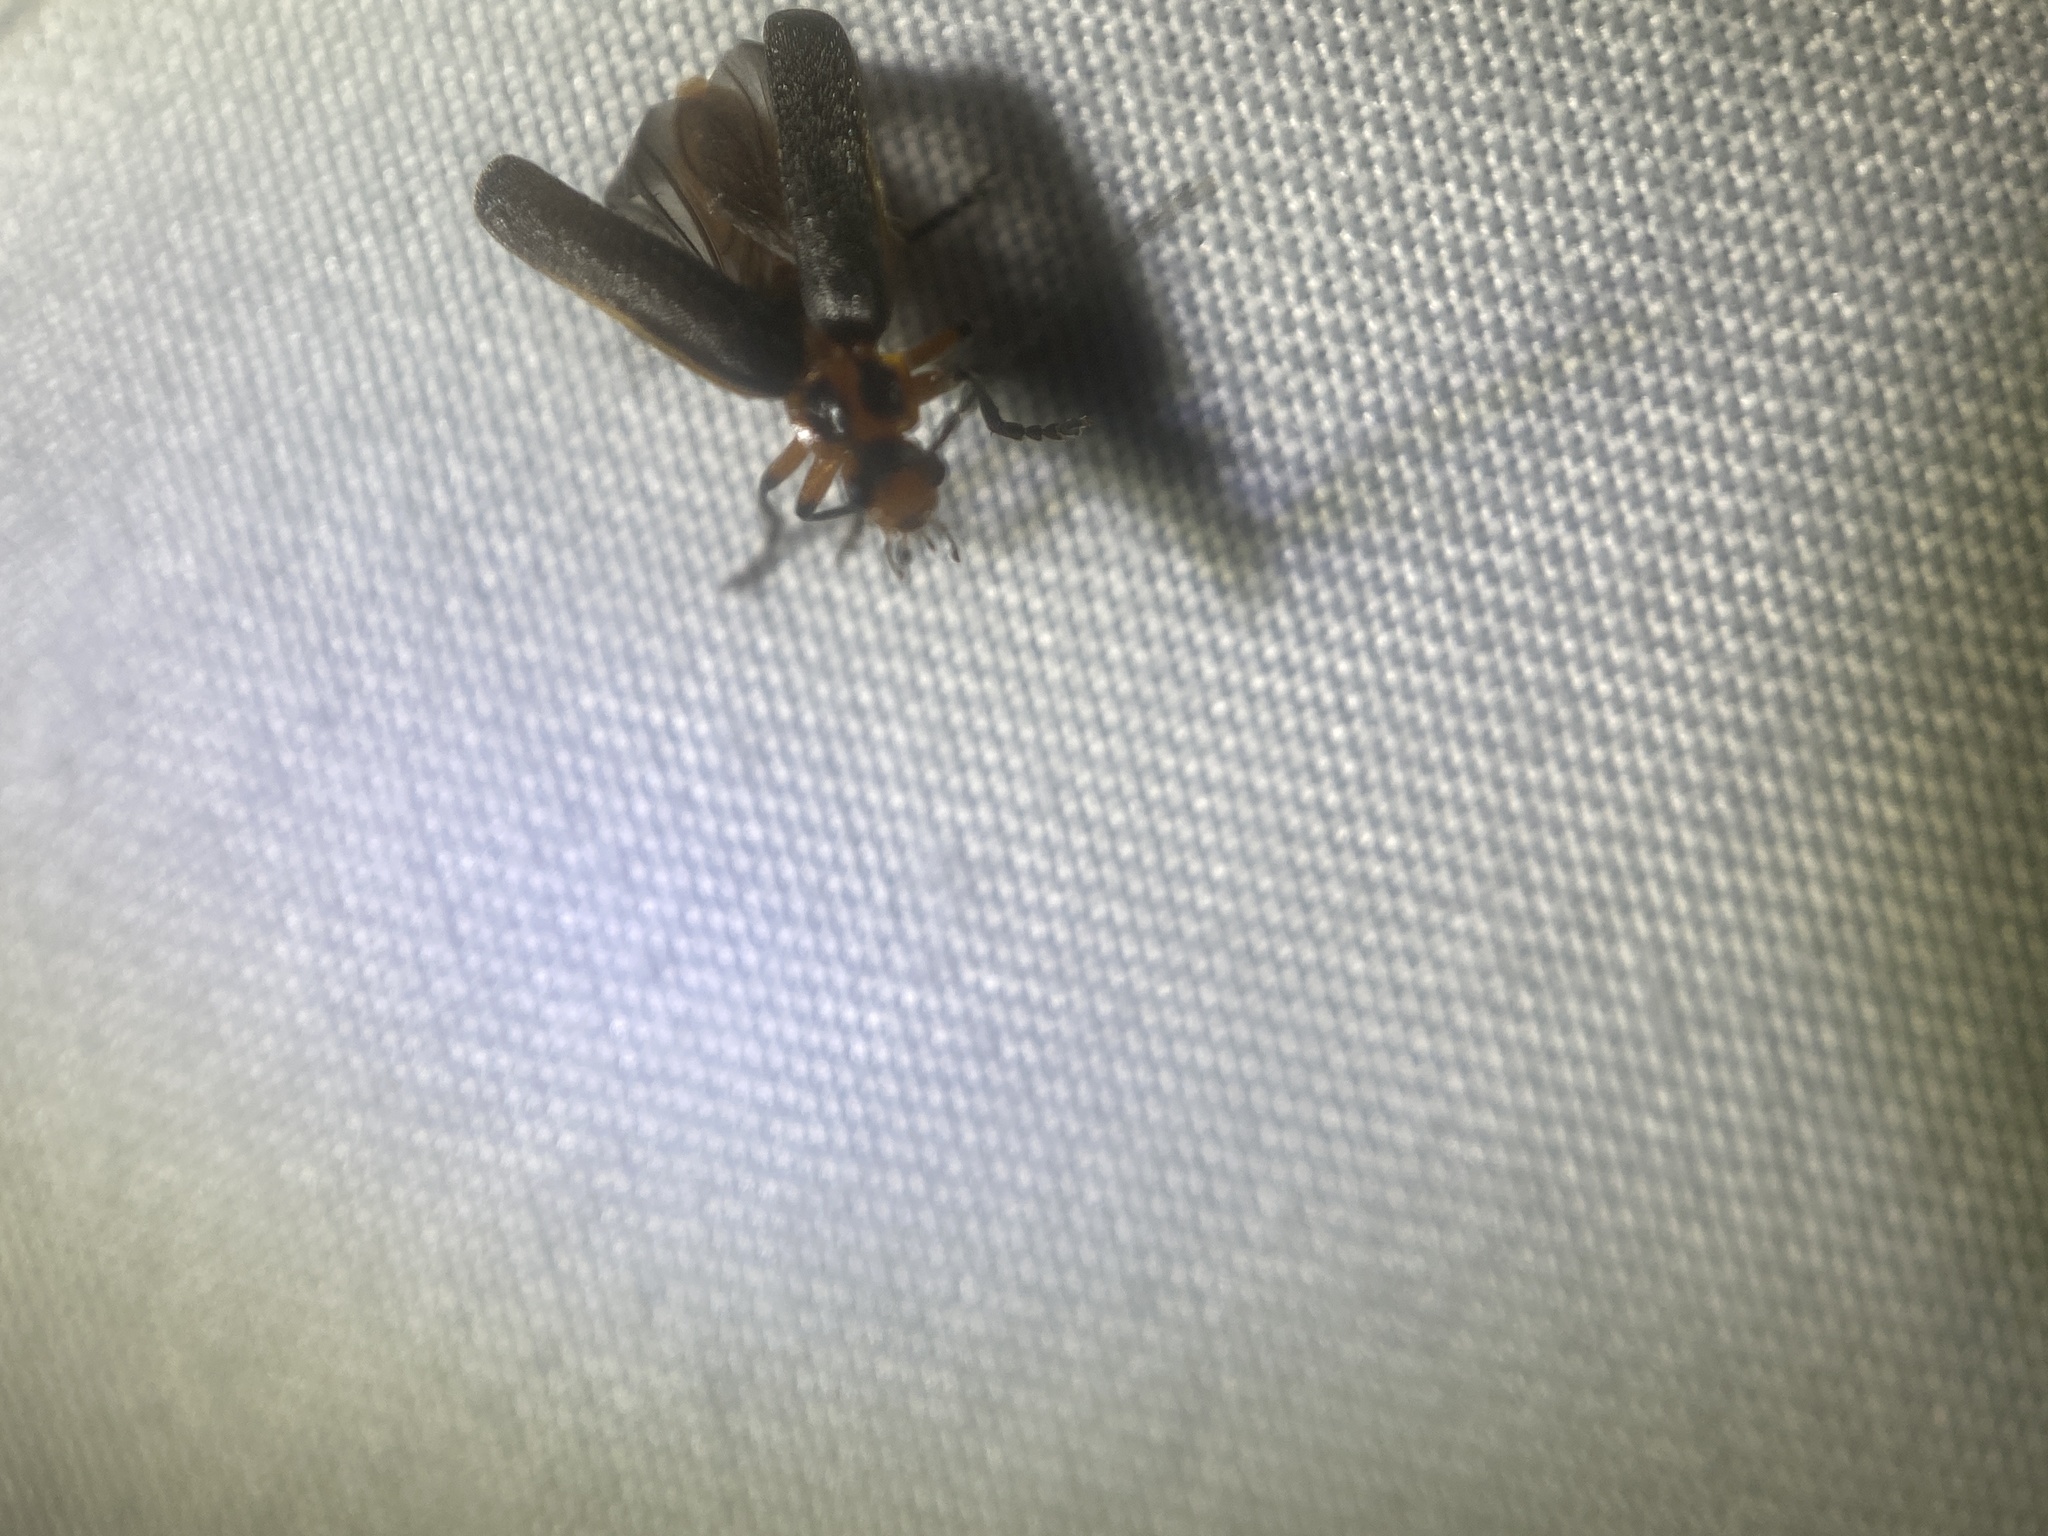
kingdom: Animalia
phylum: Arthropoda
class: Insecta
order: Coleoptera
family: Cantharidae
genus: Atalantycha
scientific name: Atalantycha bilineata
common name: Two-lined leatherwing
